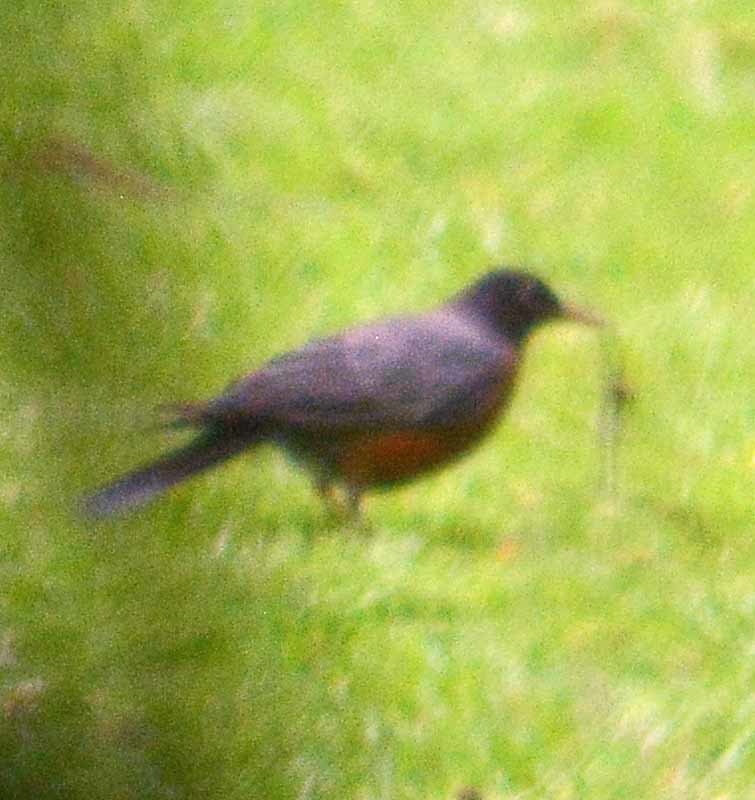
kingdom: Animalia
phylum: Chordata
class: Aves
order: Passeriformes
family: Turdidae
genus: Turdus
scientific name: Turdus migratorius
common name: American robin
